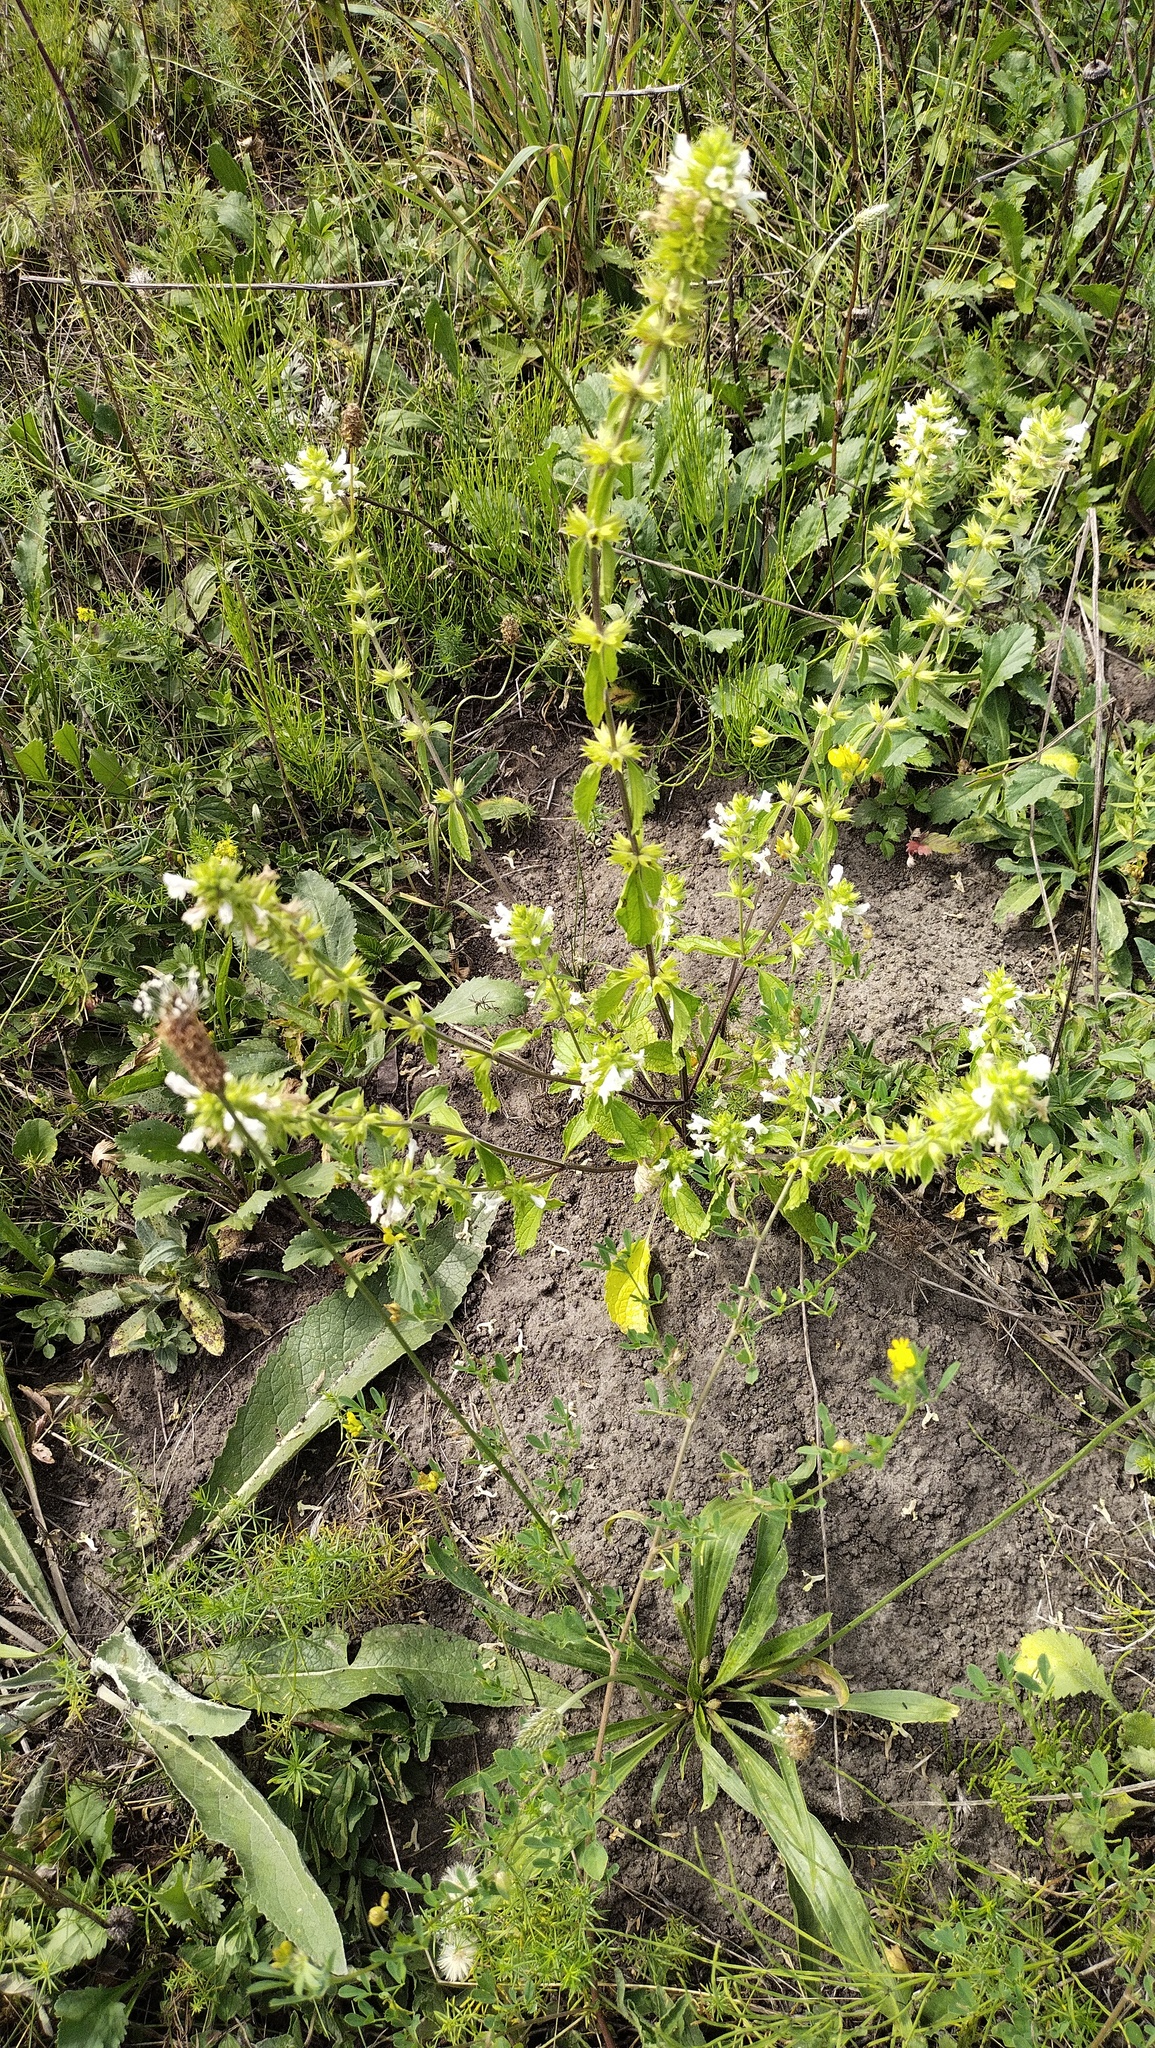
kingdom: Plantae
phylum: Tracheophyta
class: Magnoliopsida
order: Lamiales
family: Lamiaceae
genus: Stachys
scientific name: Stachys annua
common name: Annual yellow-woundwort
